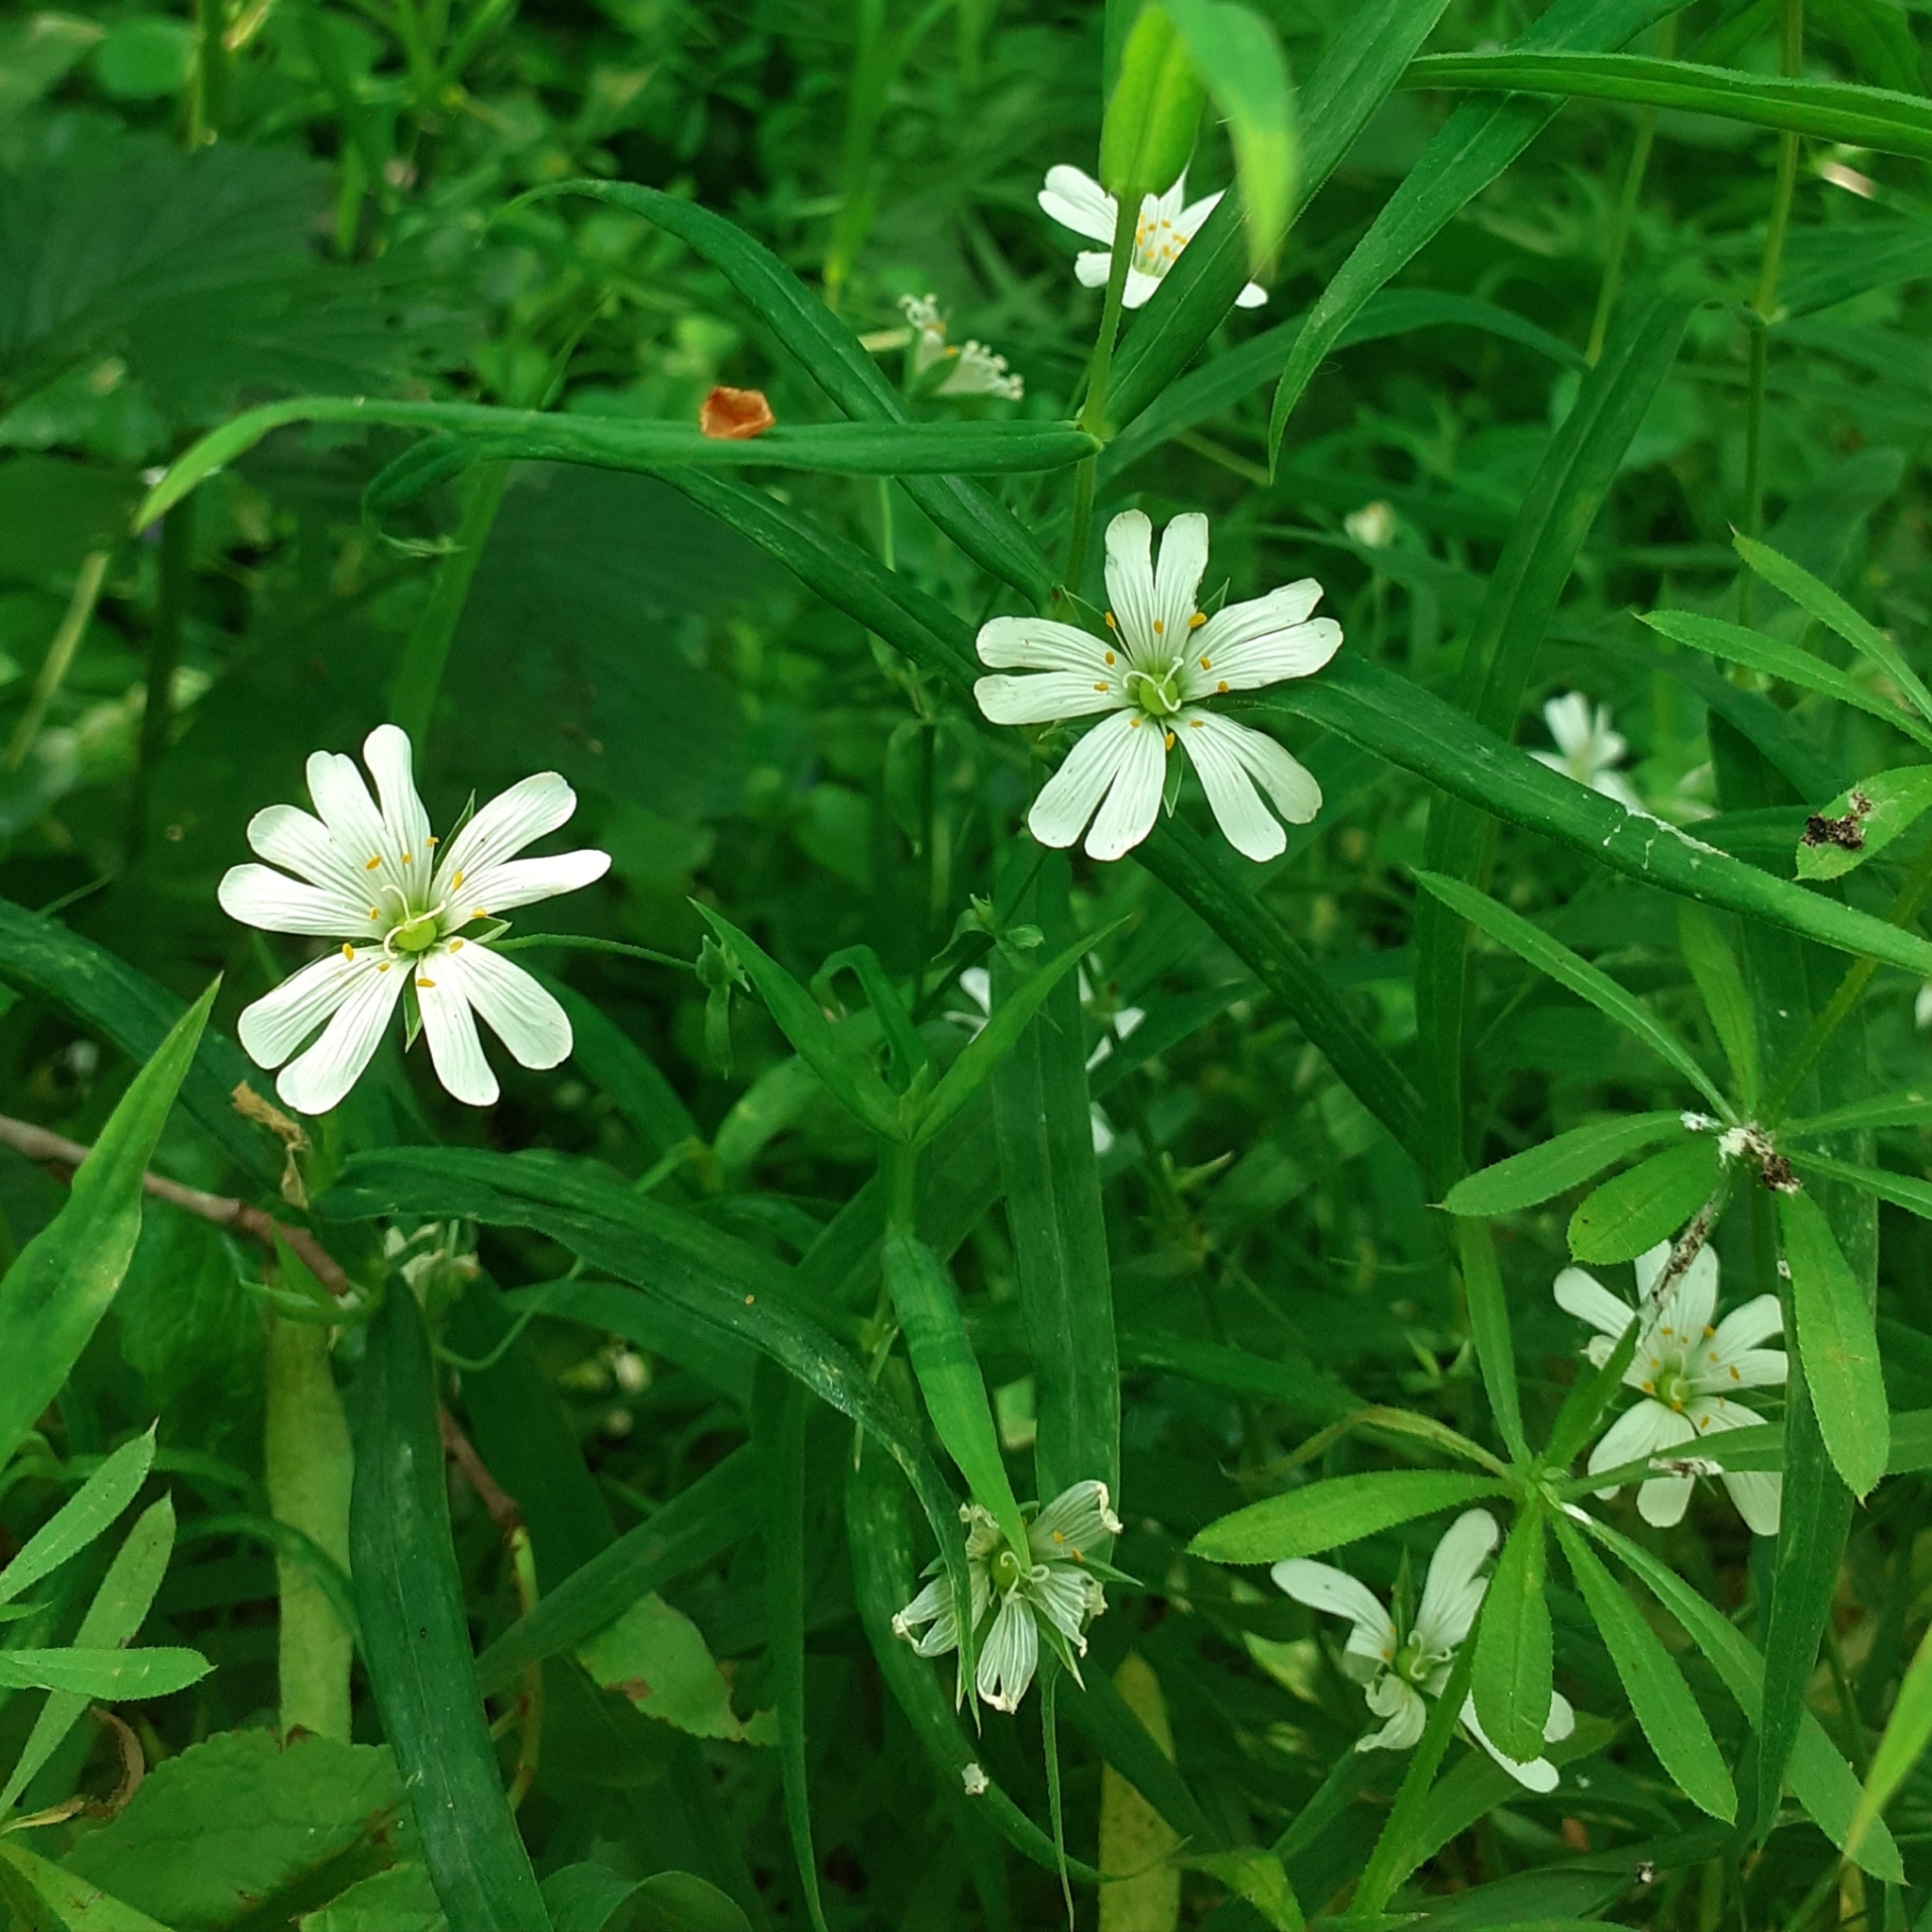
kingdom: Plantae
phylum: Tracheophyta
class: Magnoliopsida
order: Caryophyllales
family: Caryophyllaceae
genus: Rabelera
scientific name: Rabelera holostea
